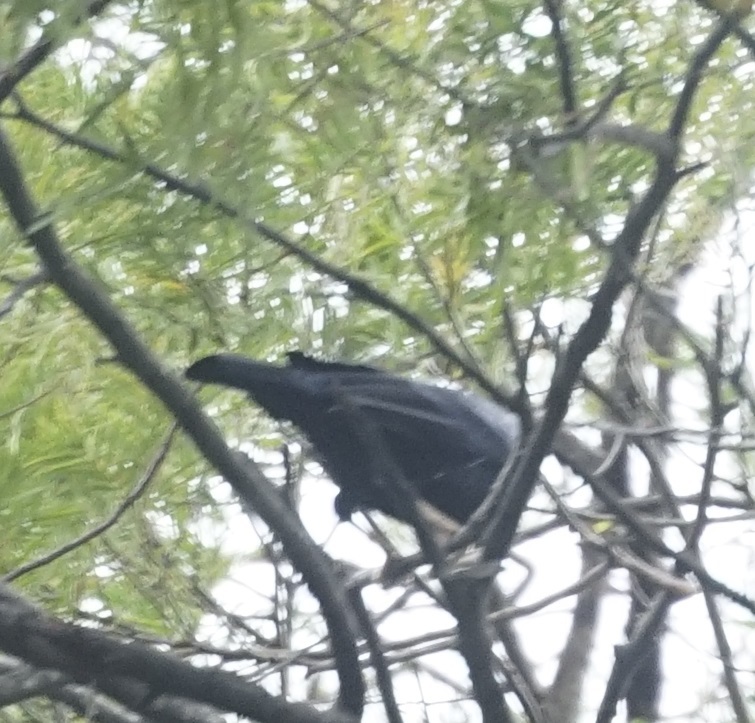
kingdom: Animalia
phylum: Chordata
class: Aves
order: Passeriformes
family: Ptilonorhynchidae
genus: Ptilonorhynchus
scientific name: Ptilonorhynchus violaceus
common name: Satin bowerbird
